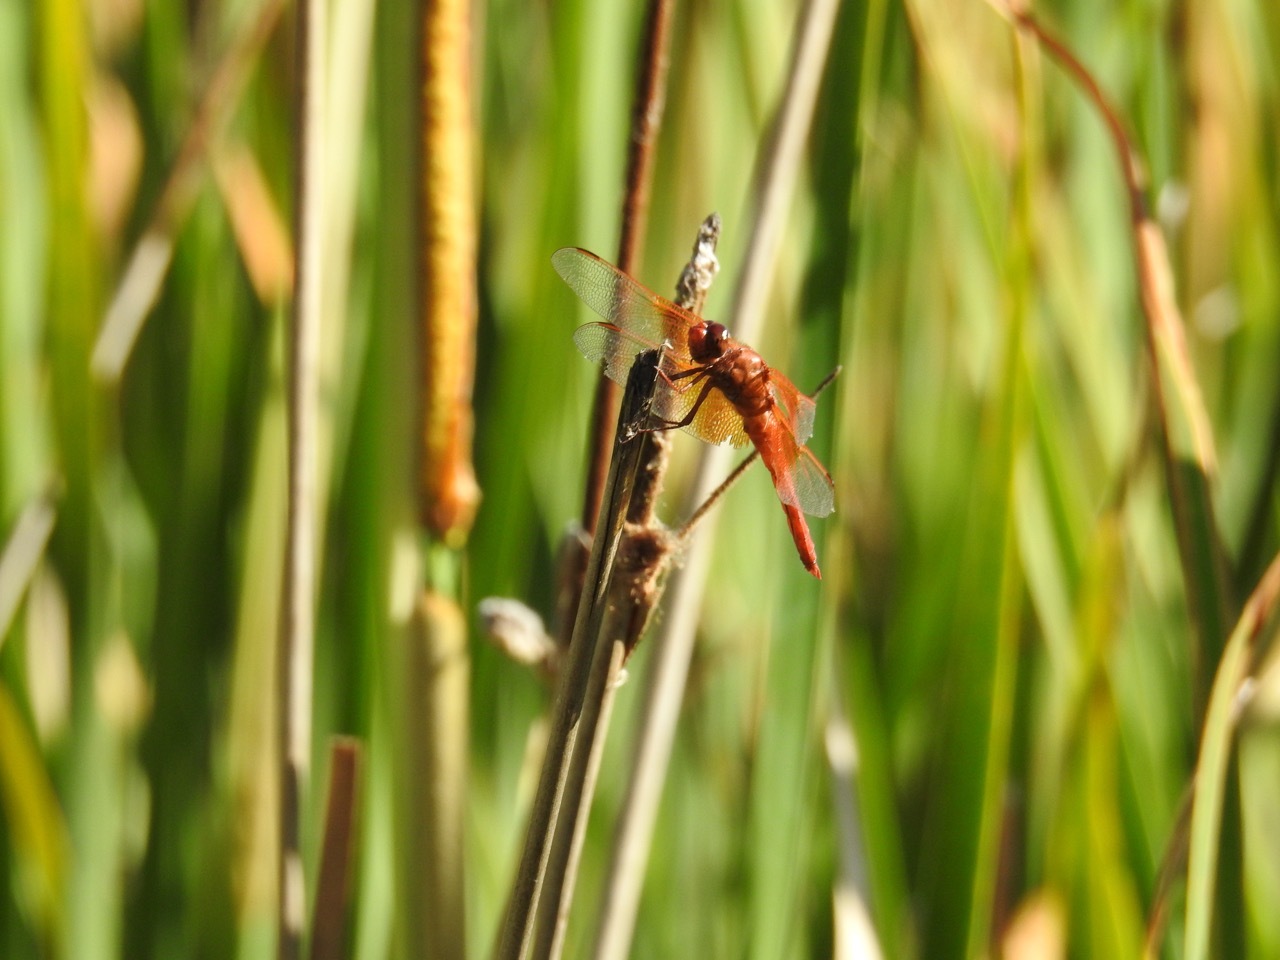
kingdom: Animalia
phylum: Arthropoda
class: Insecta
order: Odonata
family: Libellulidae
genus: Libellula
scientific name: Libellula saturata
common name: Flame skimmer
